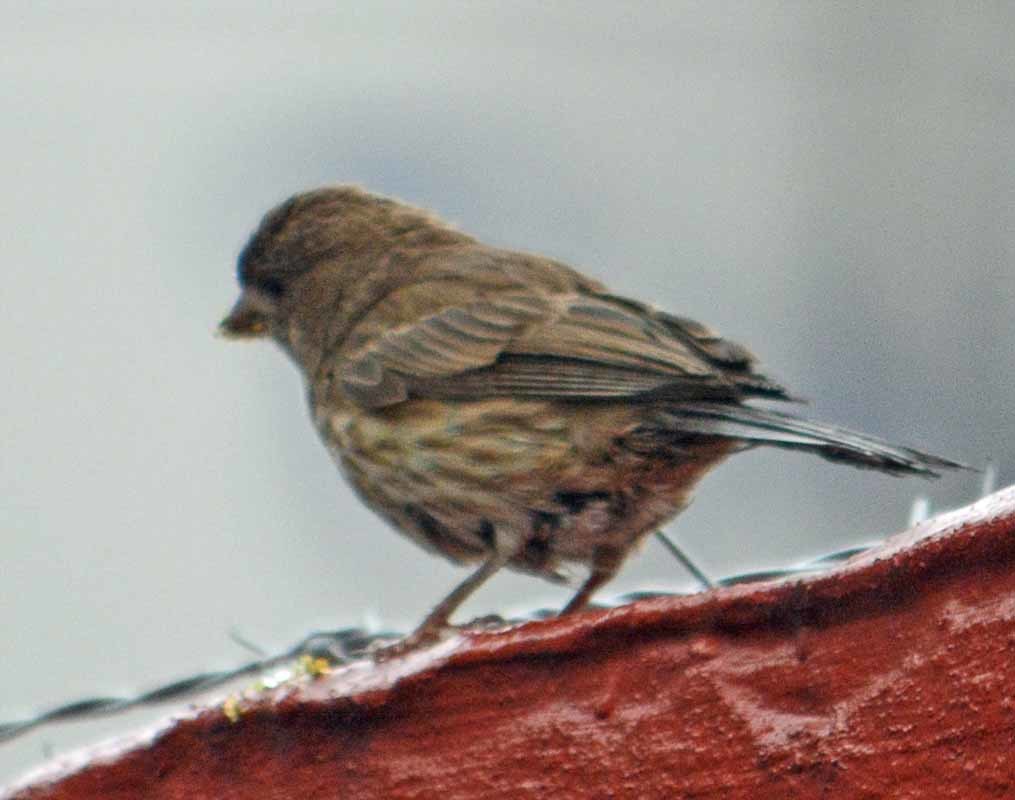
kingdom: Animalia
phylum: Chordata
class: Aves
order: Passeriformes
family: Fringillidae
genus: Haemorhous
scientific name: Haemorhous mexicanus
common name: House finch
